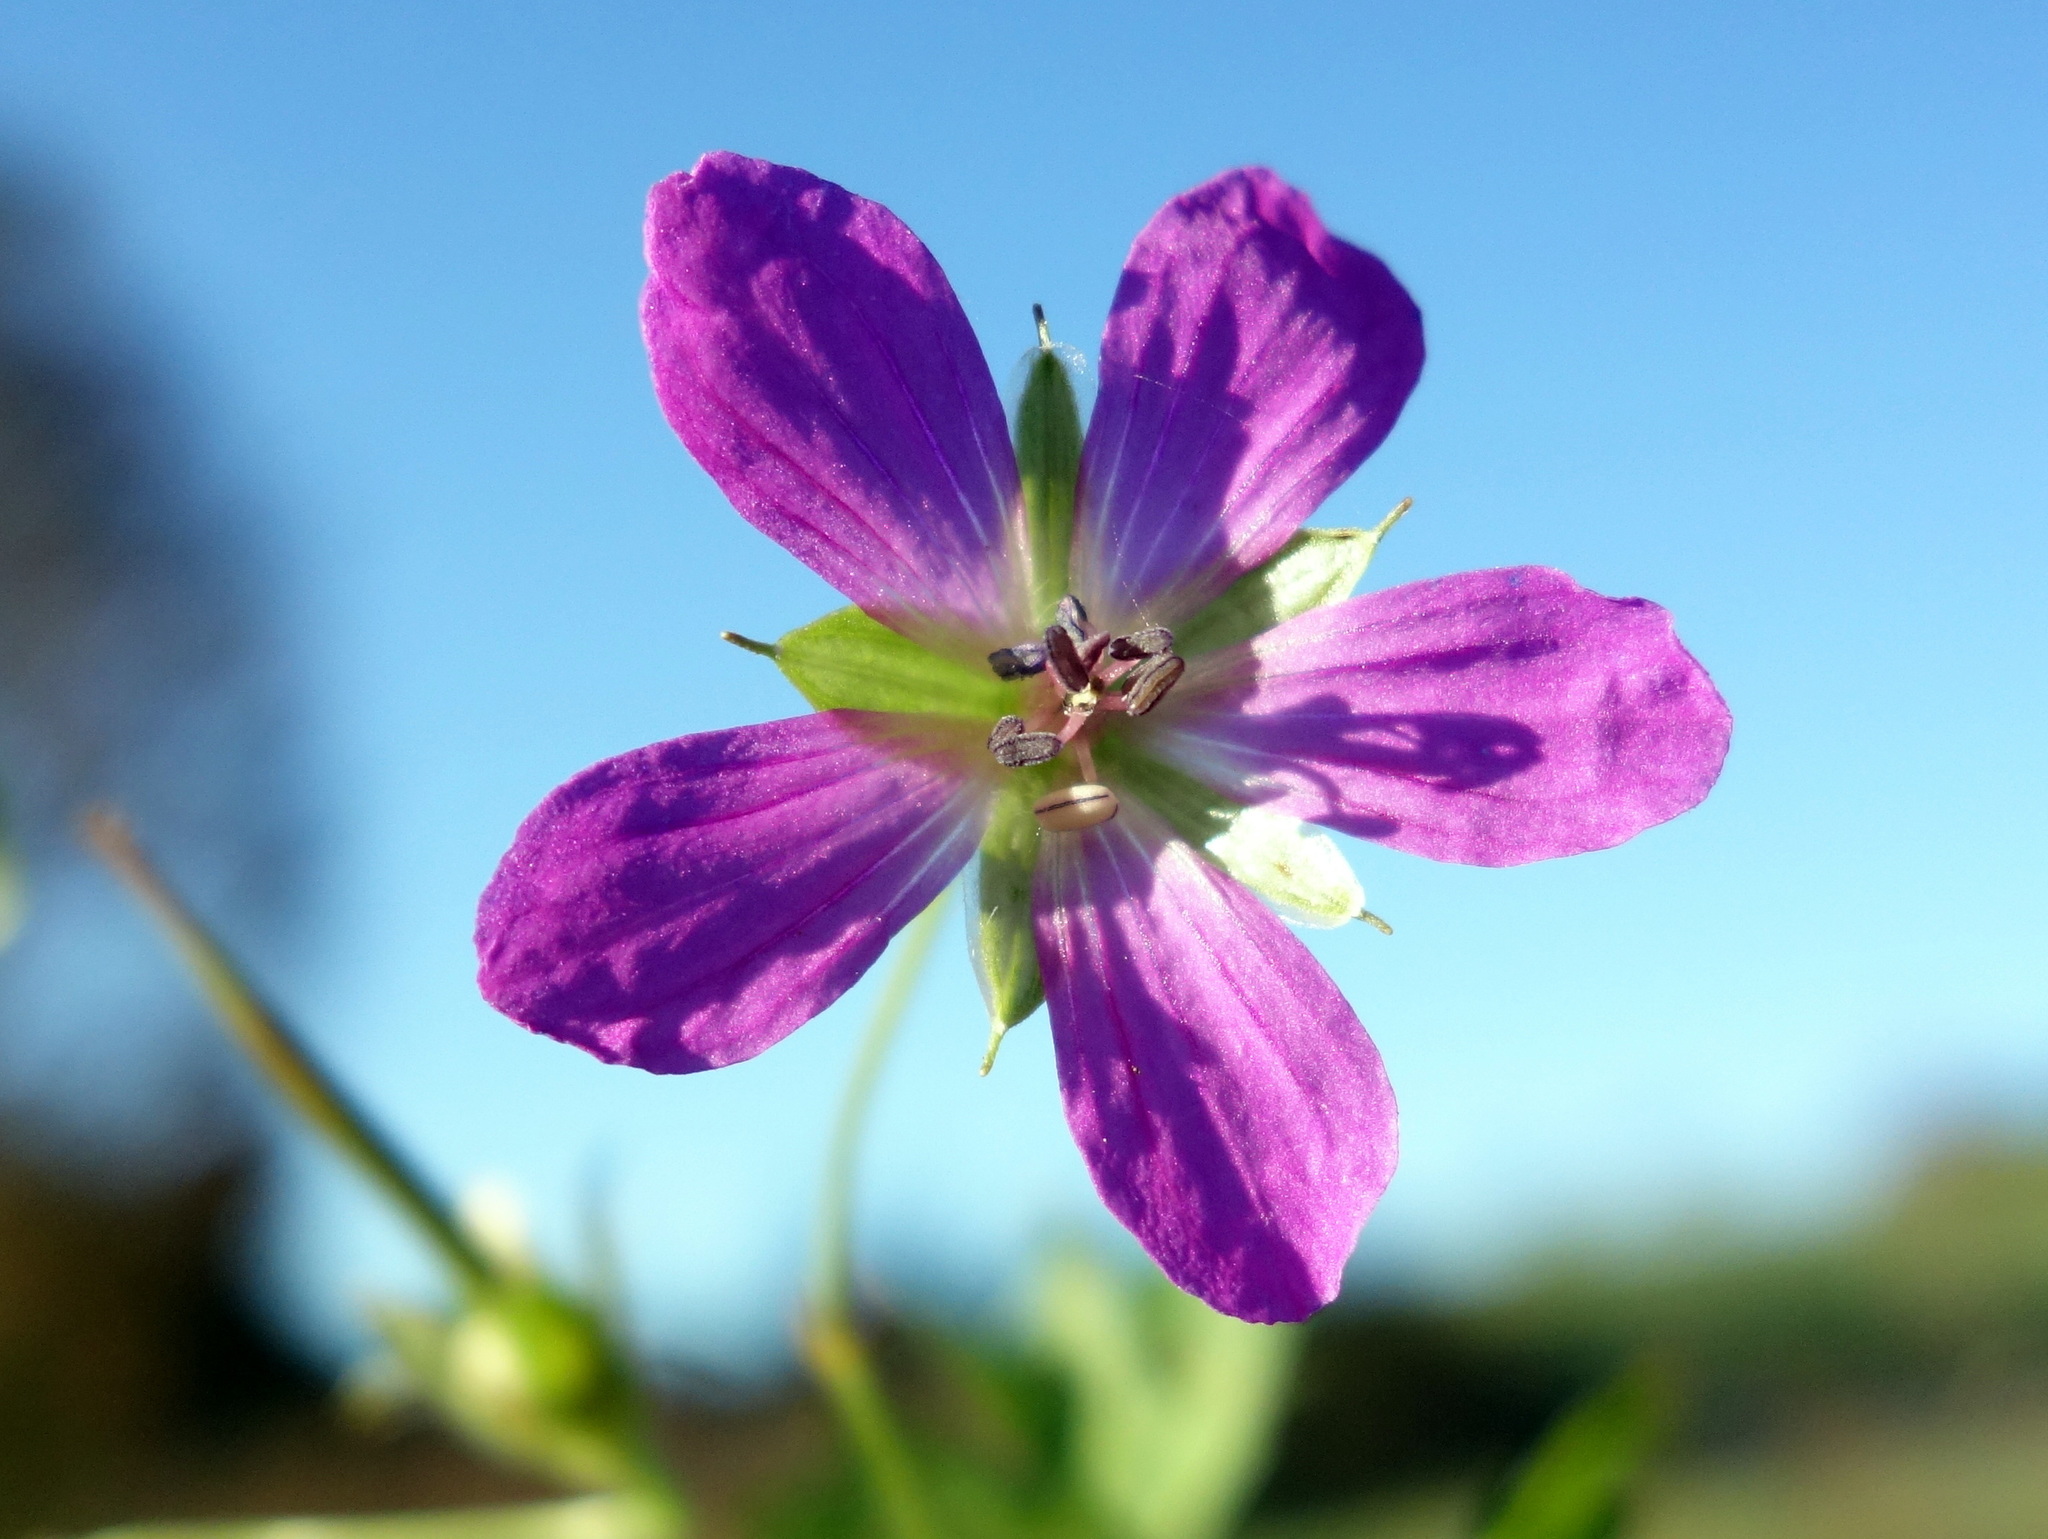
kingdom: Plantae
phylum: Tracheophyta
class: Magnoliopsida
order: Geraniales
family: Geraniaceae
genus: Geranium
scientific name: Geranium palustre
